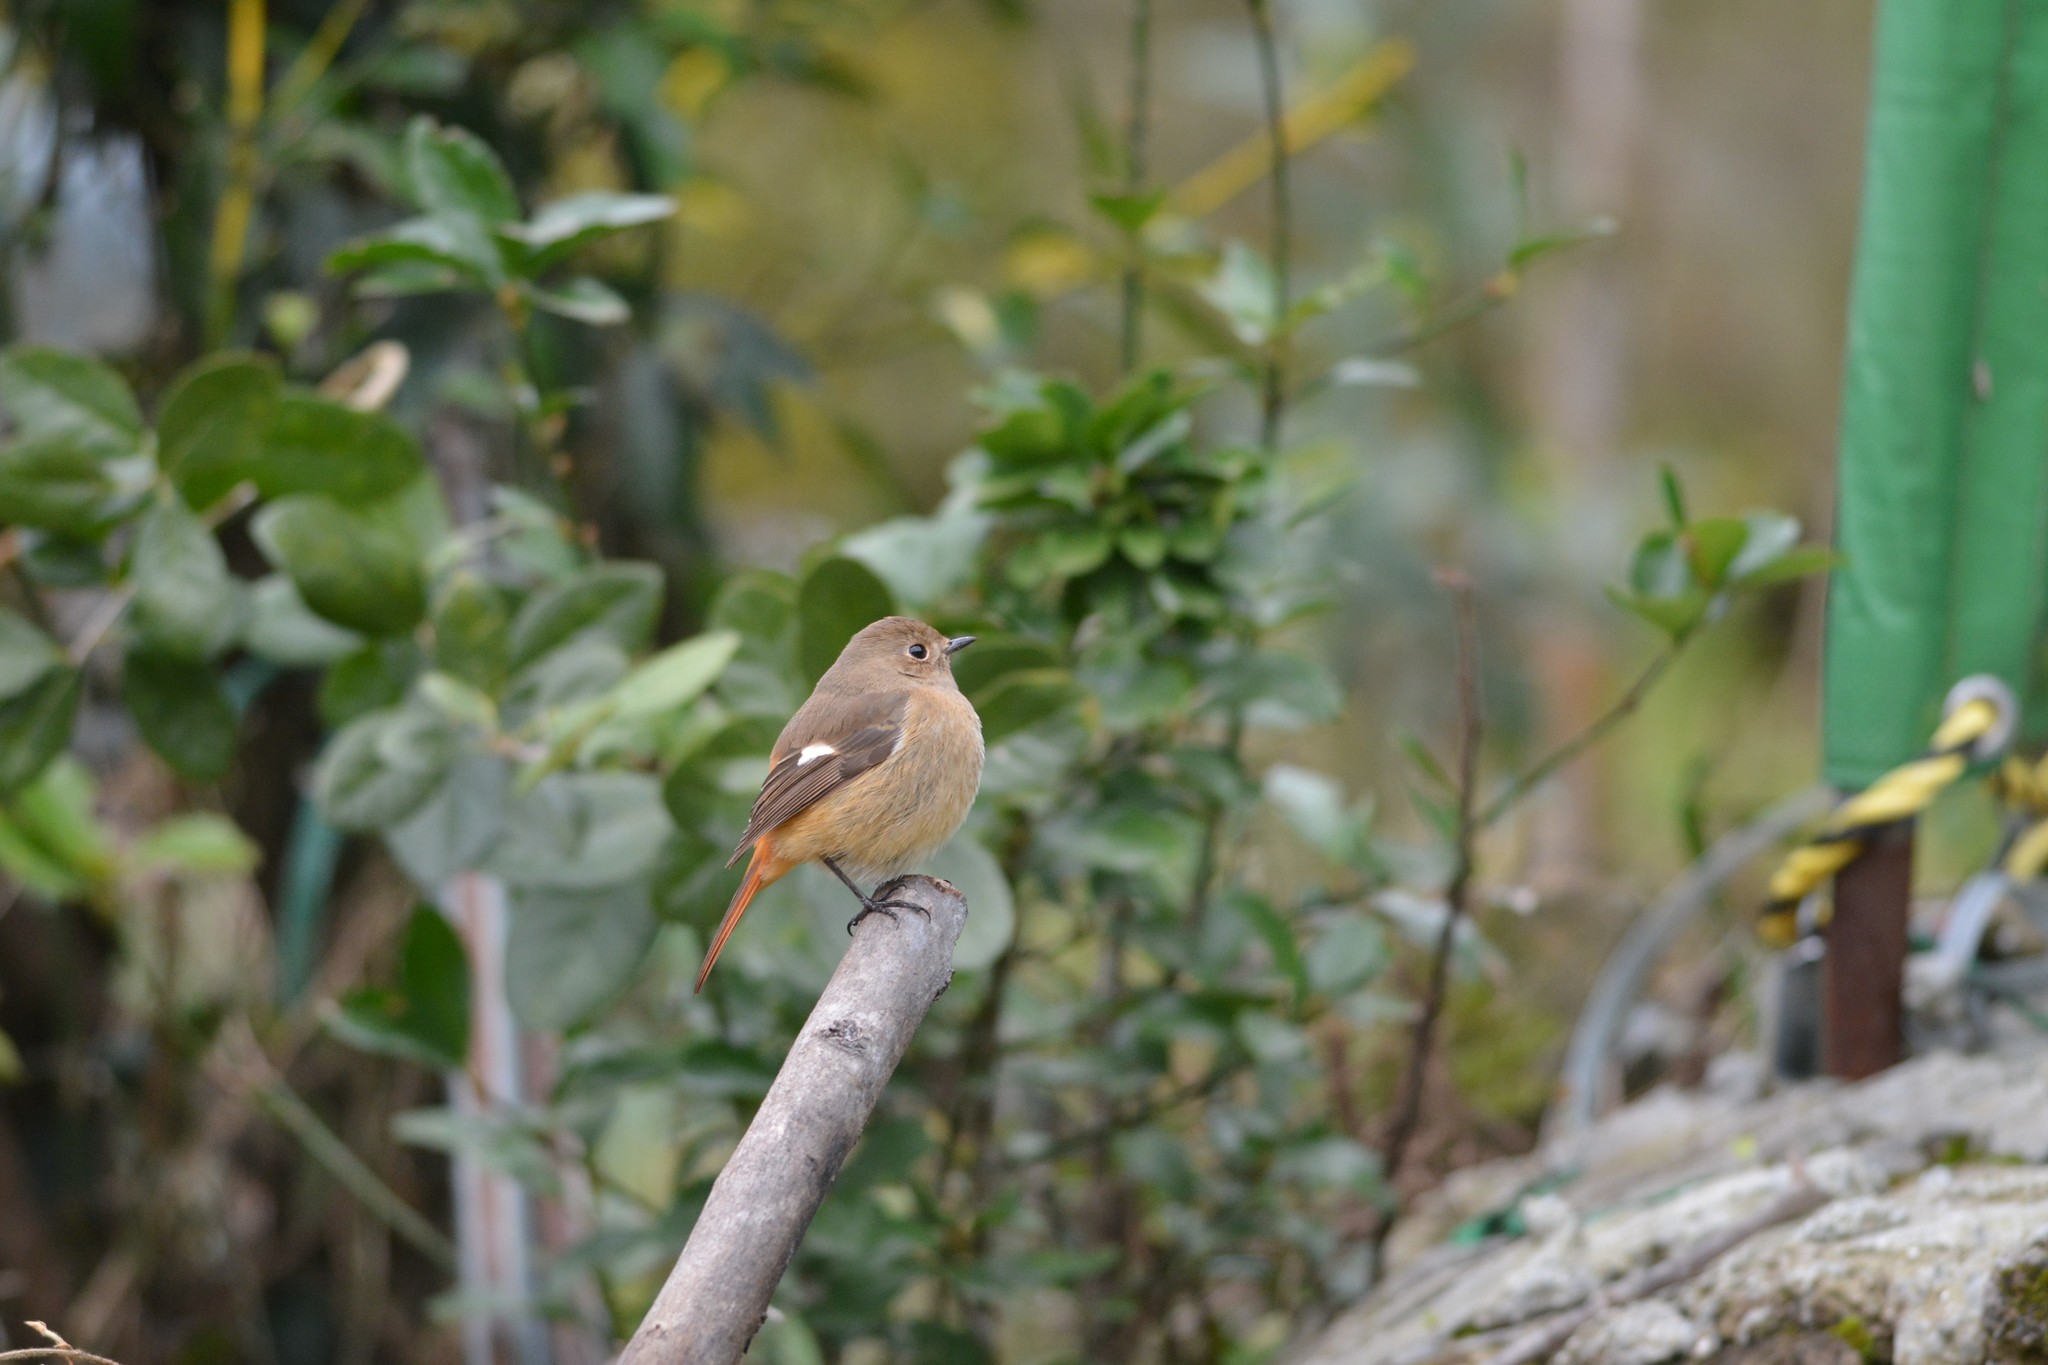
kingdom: Animalia
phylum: Chordata
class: Aves
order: Passeriformes
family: Muscicapidae
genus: Phoenicurus
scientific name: Phoenicurus auroreus
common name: Daurian redstart
